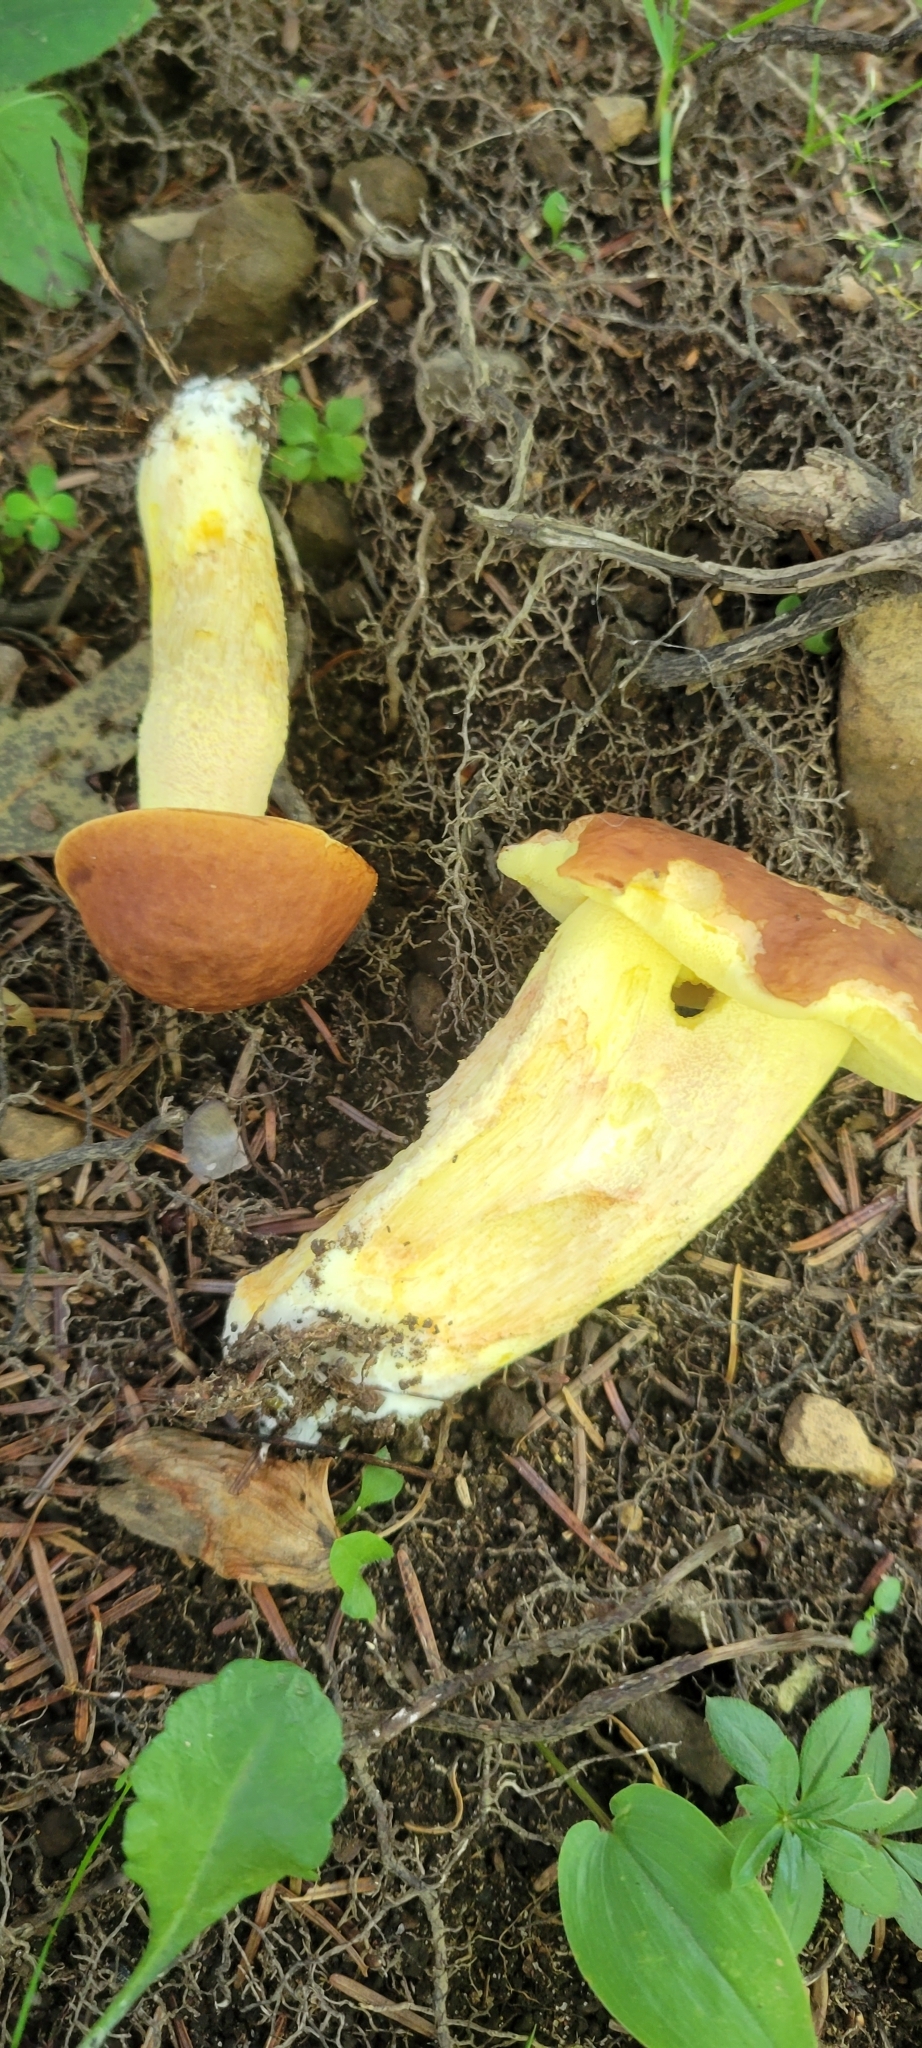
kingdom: Fungi
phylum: Basidiomycota
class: Agaricomycetes
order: Boletales
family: Boletaceae
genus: Hemileccinum
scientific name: Hemileccinum subglabripes
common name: Smoothish-stemmed bolete
